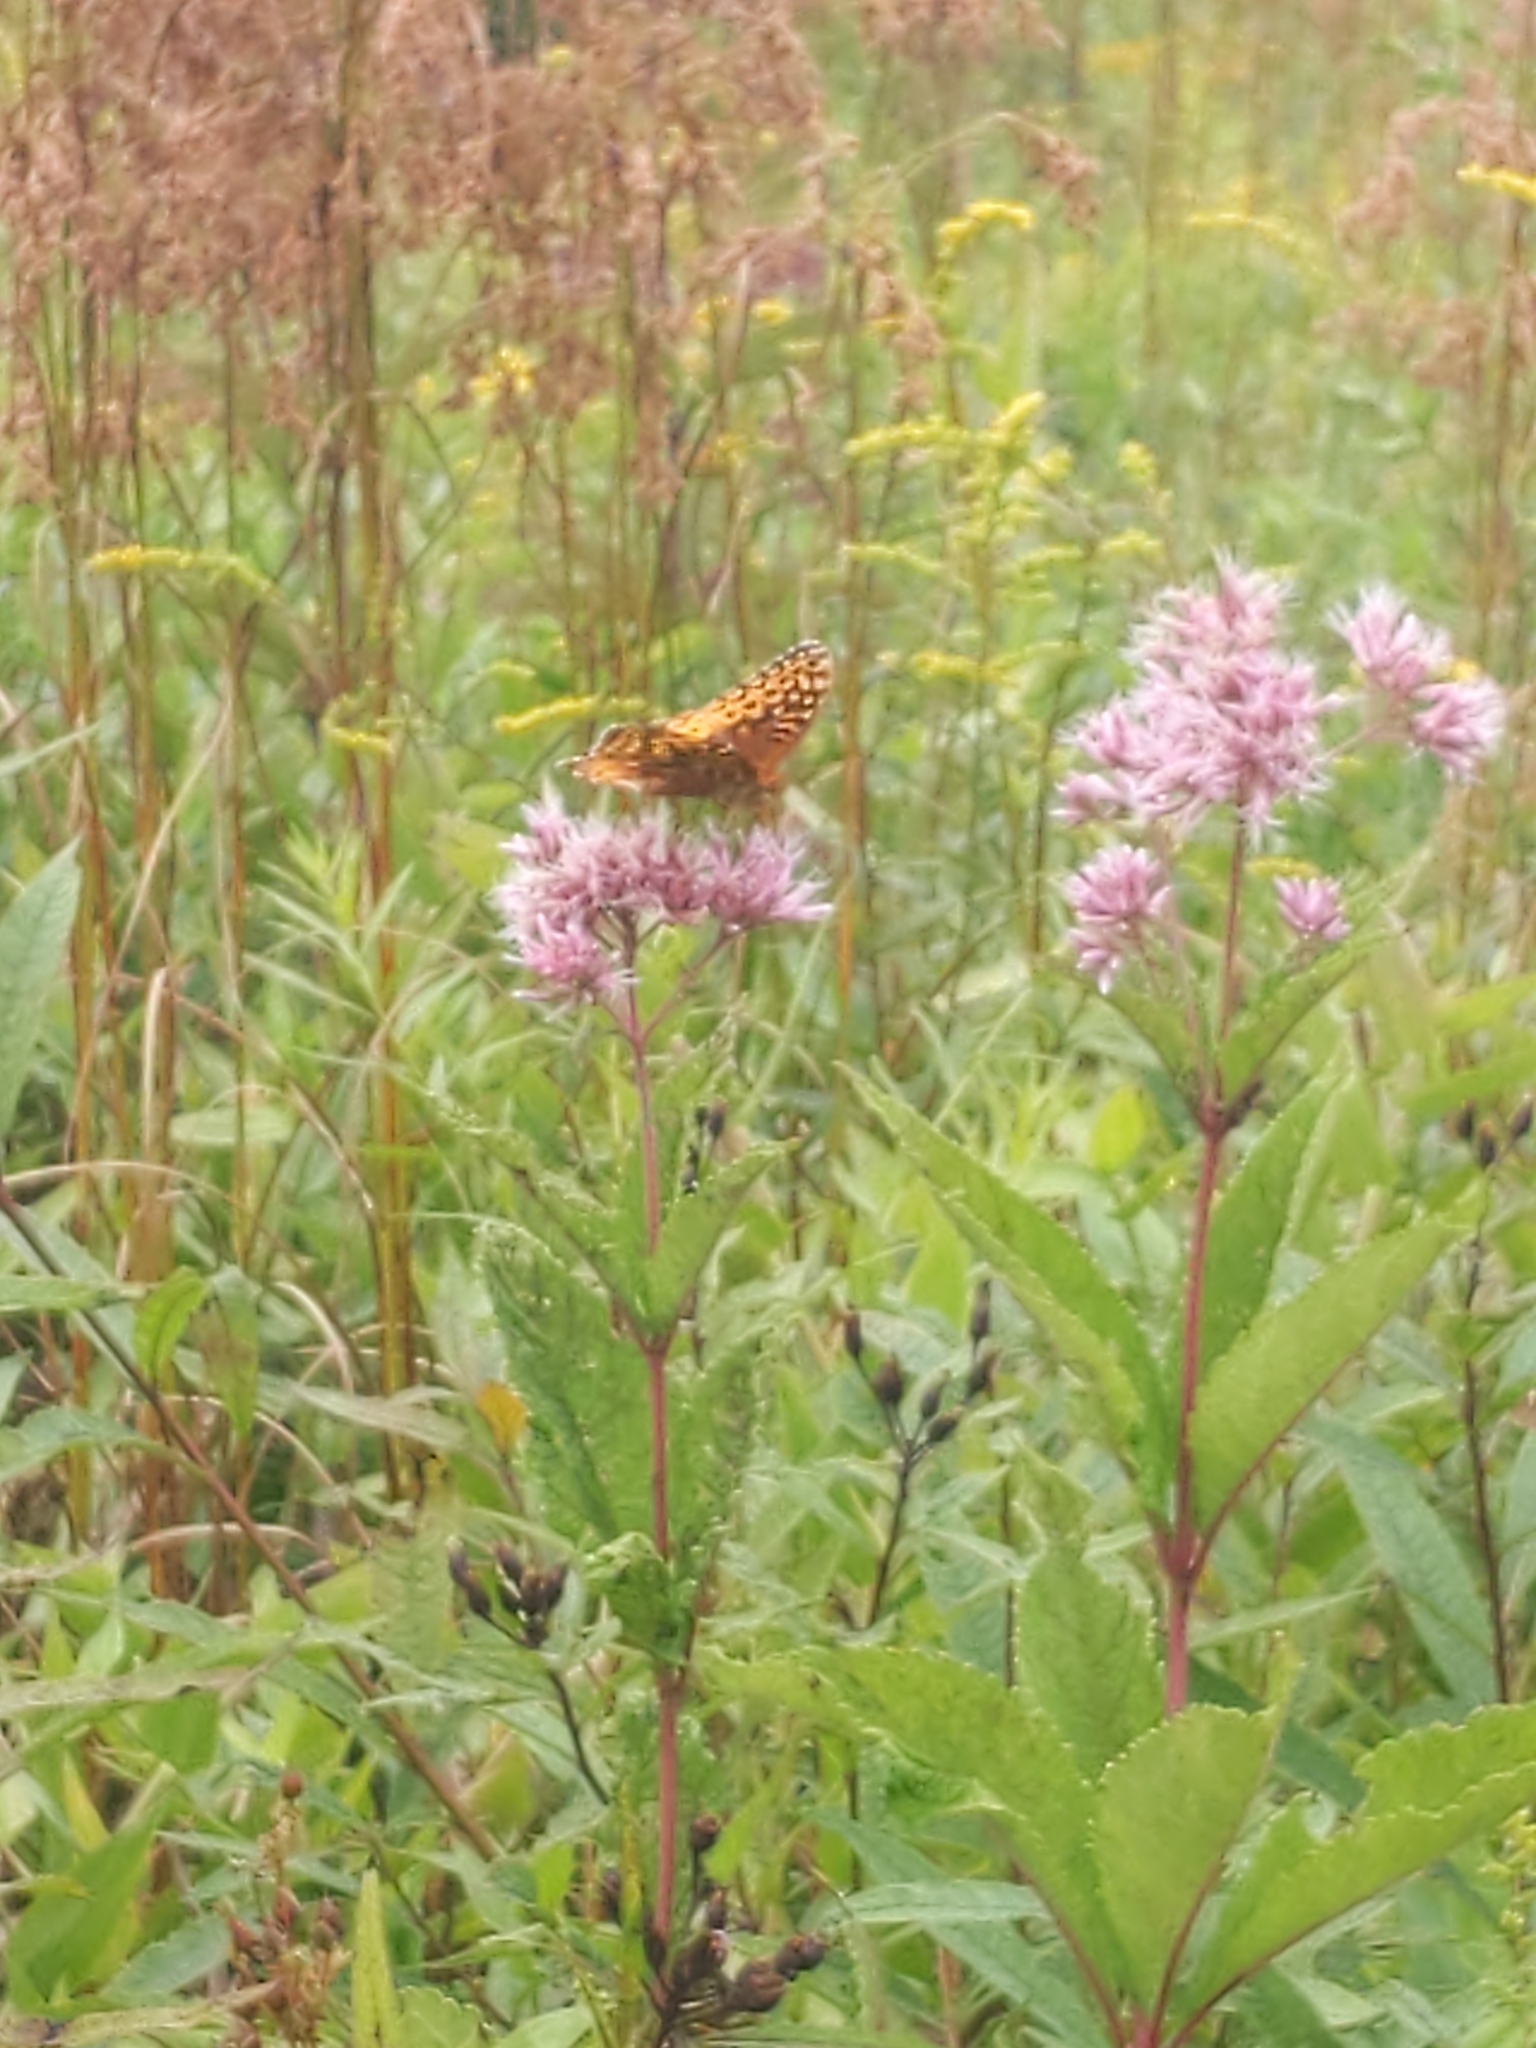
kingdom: Animalia
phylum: Arthropoda
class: Insecta
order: Lepidoptera
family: Nymphalidae
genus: Speyeria
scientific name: Speyeria cybele
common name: Great spangled fritillary
